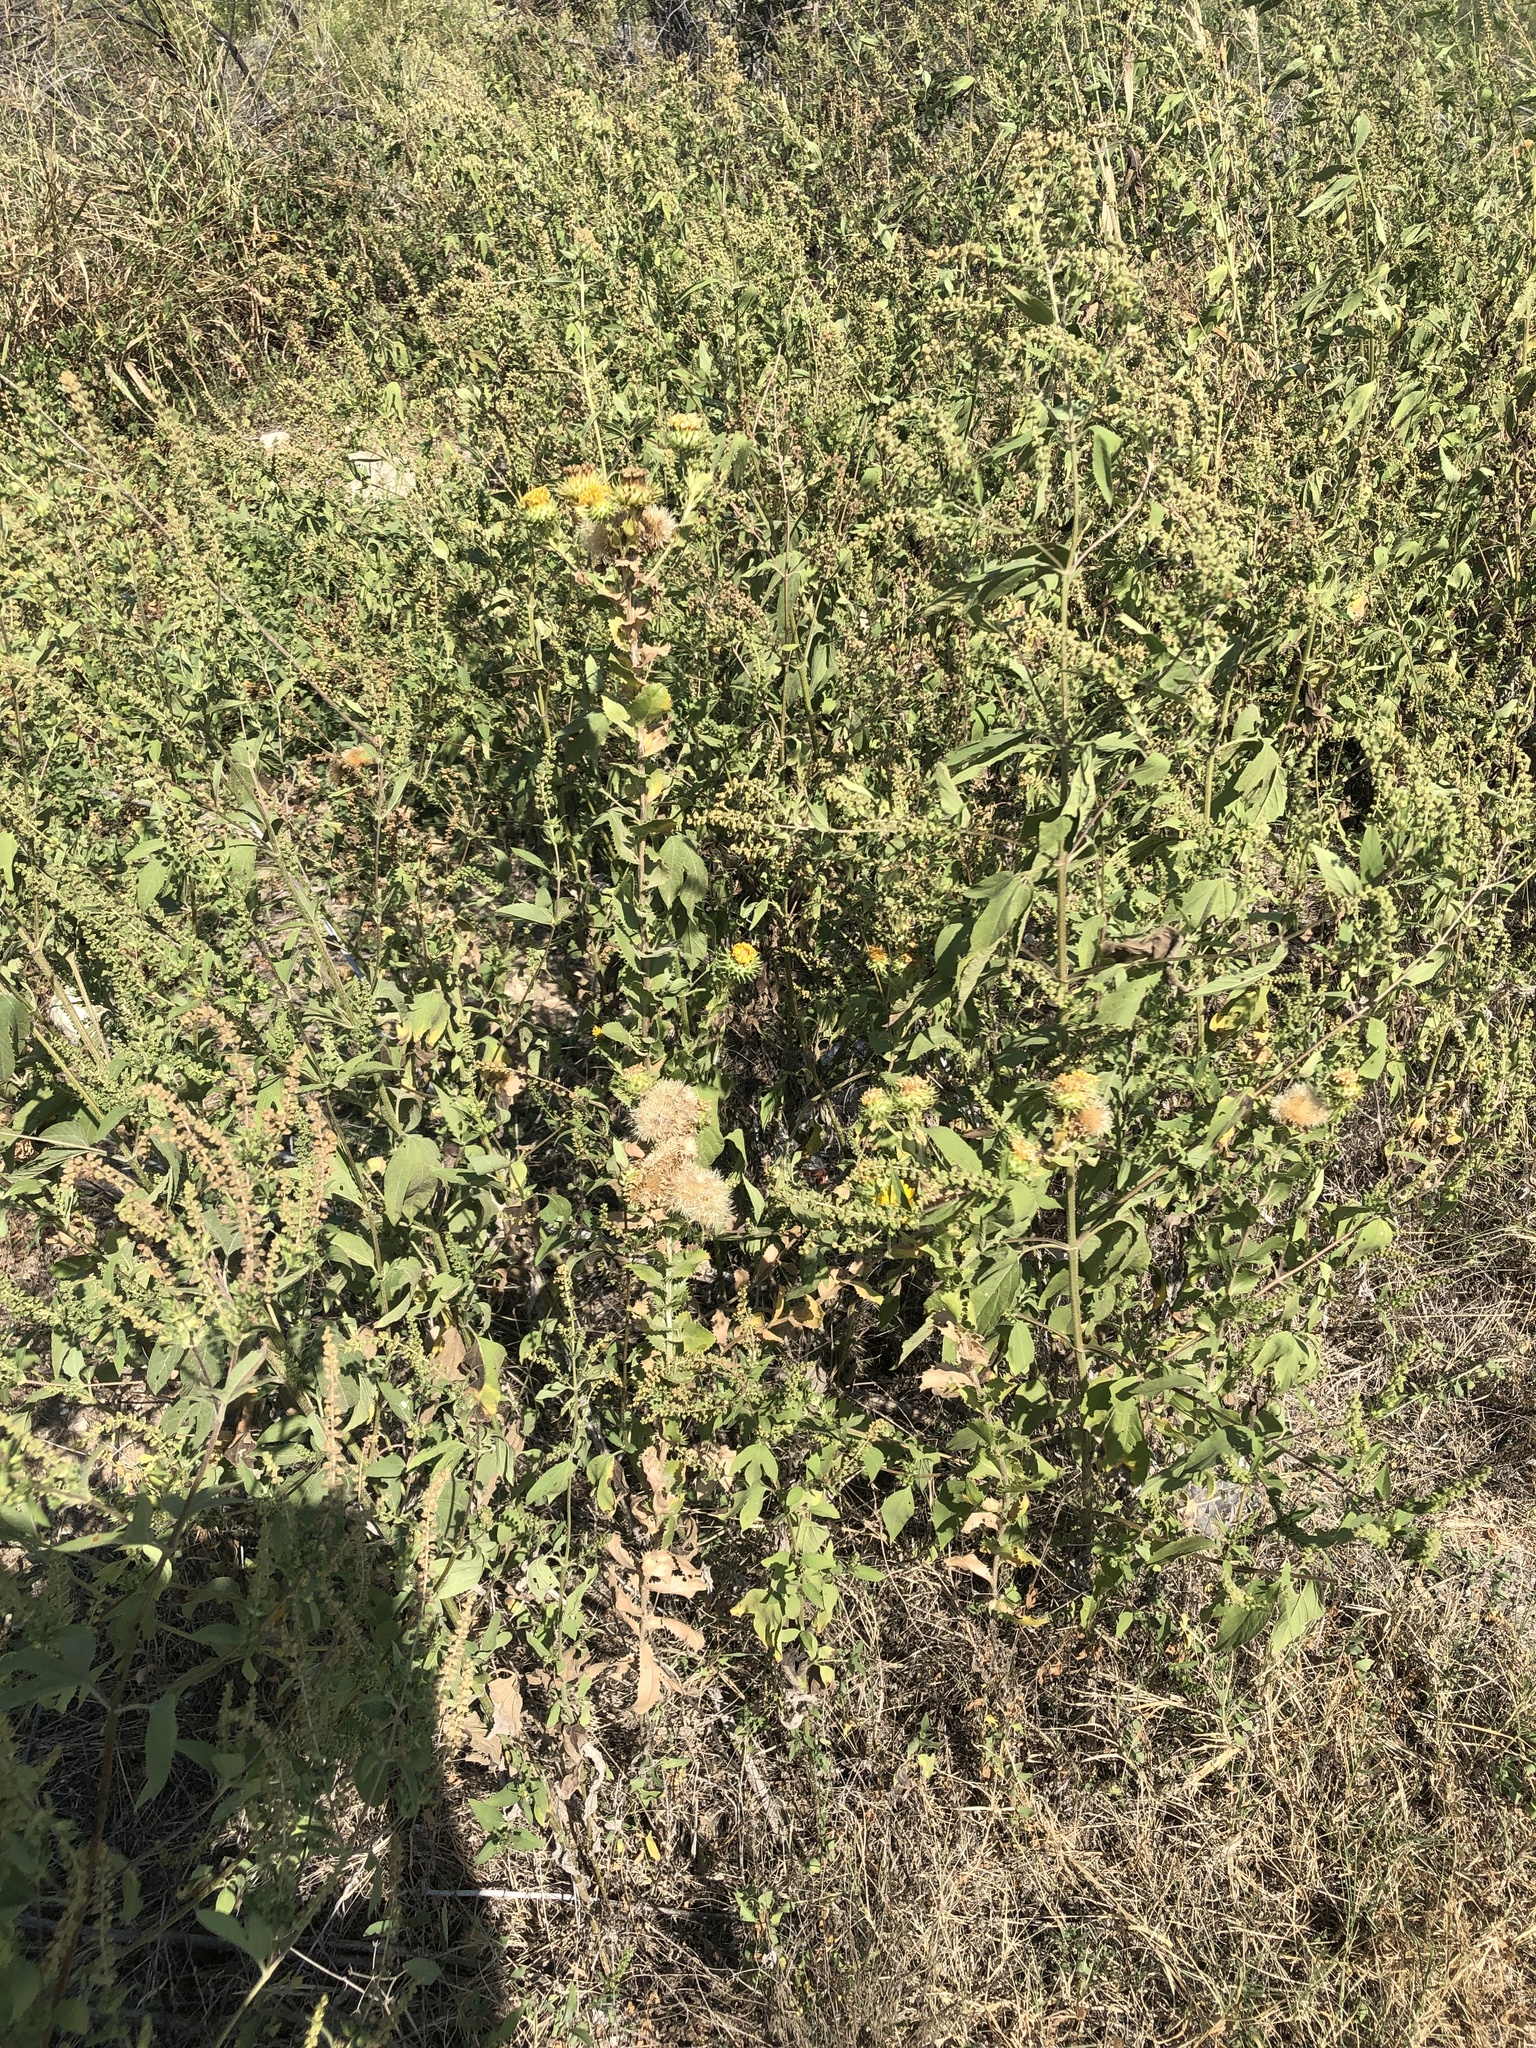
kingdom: Plantae
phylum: Tracheophyta
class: Magnoliopsida
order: Asterales
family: Asteraceae
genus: Grindelia
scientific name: Grindelia ciliata
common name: Goldenweed
